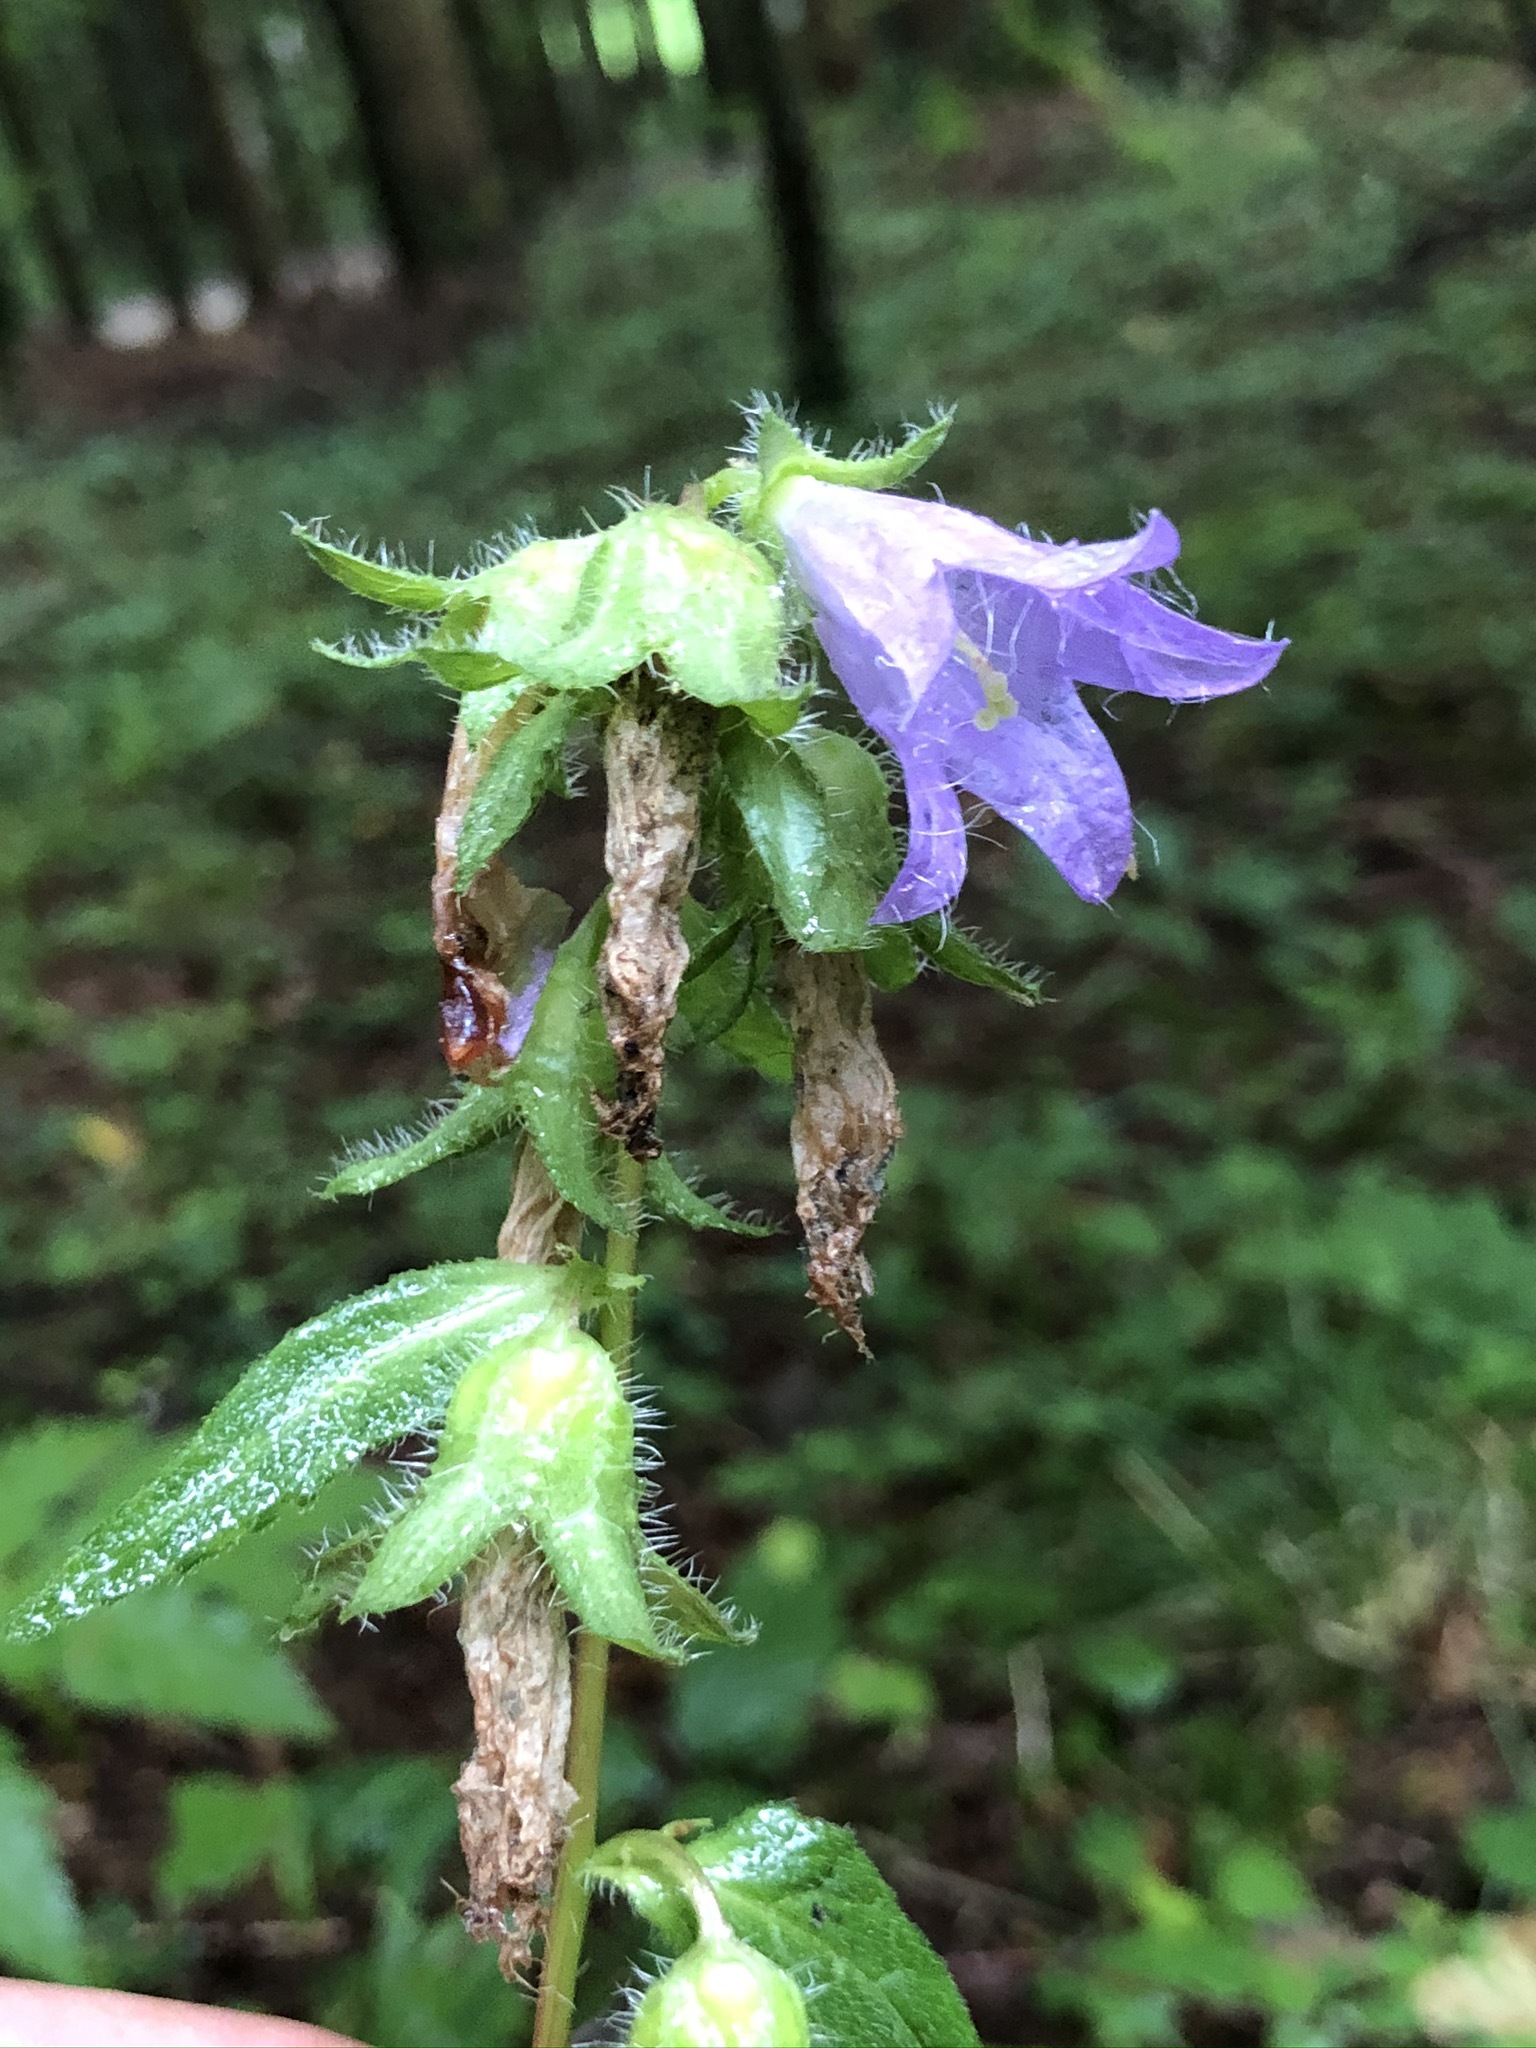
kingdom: Plantae
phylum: Tracheophyta
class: Magnoliopsida
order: Asterales
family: Campanulaceae
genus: Campanula
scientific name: Campanula trachelium
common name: Nettle-leaved bellflower
